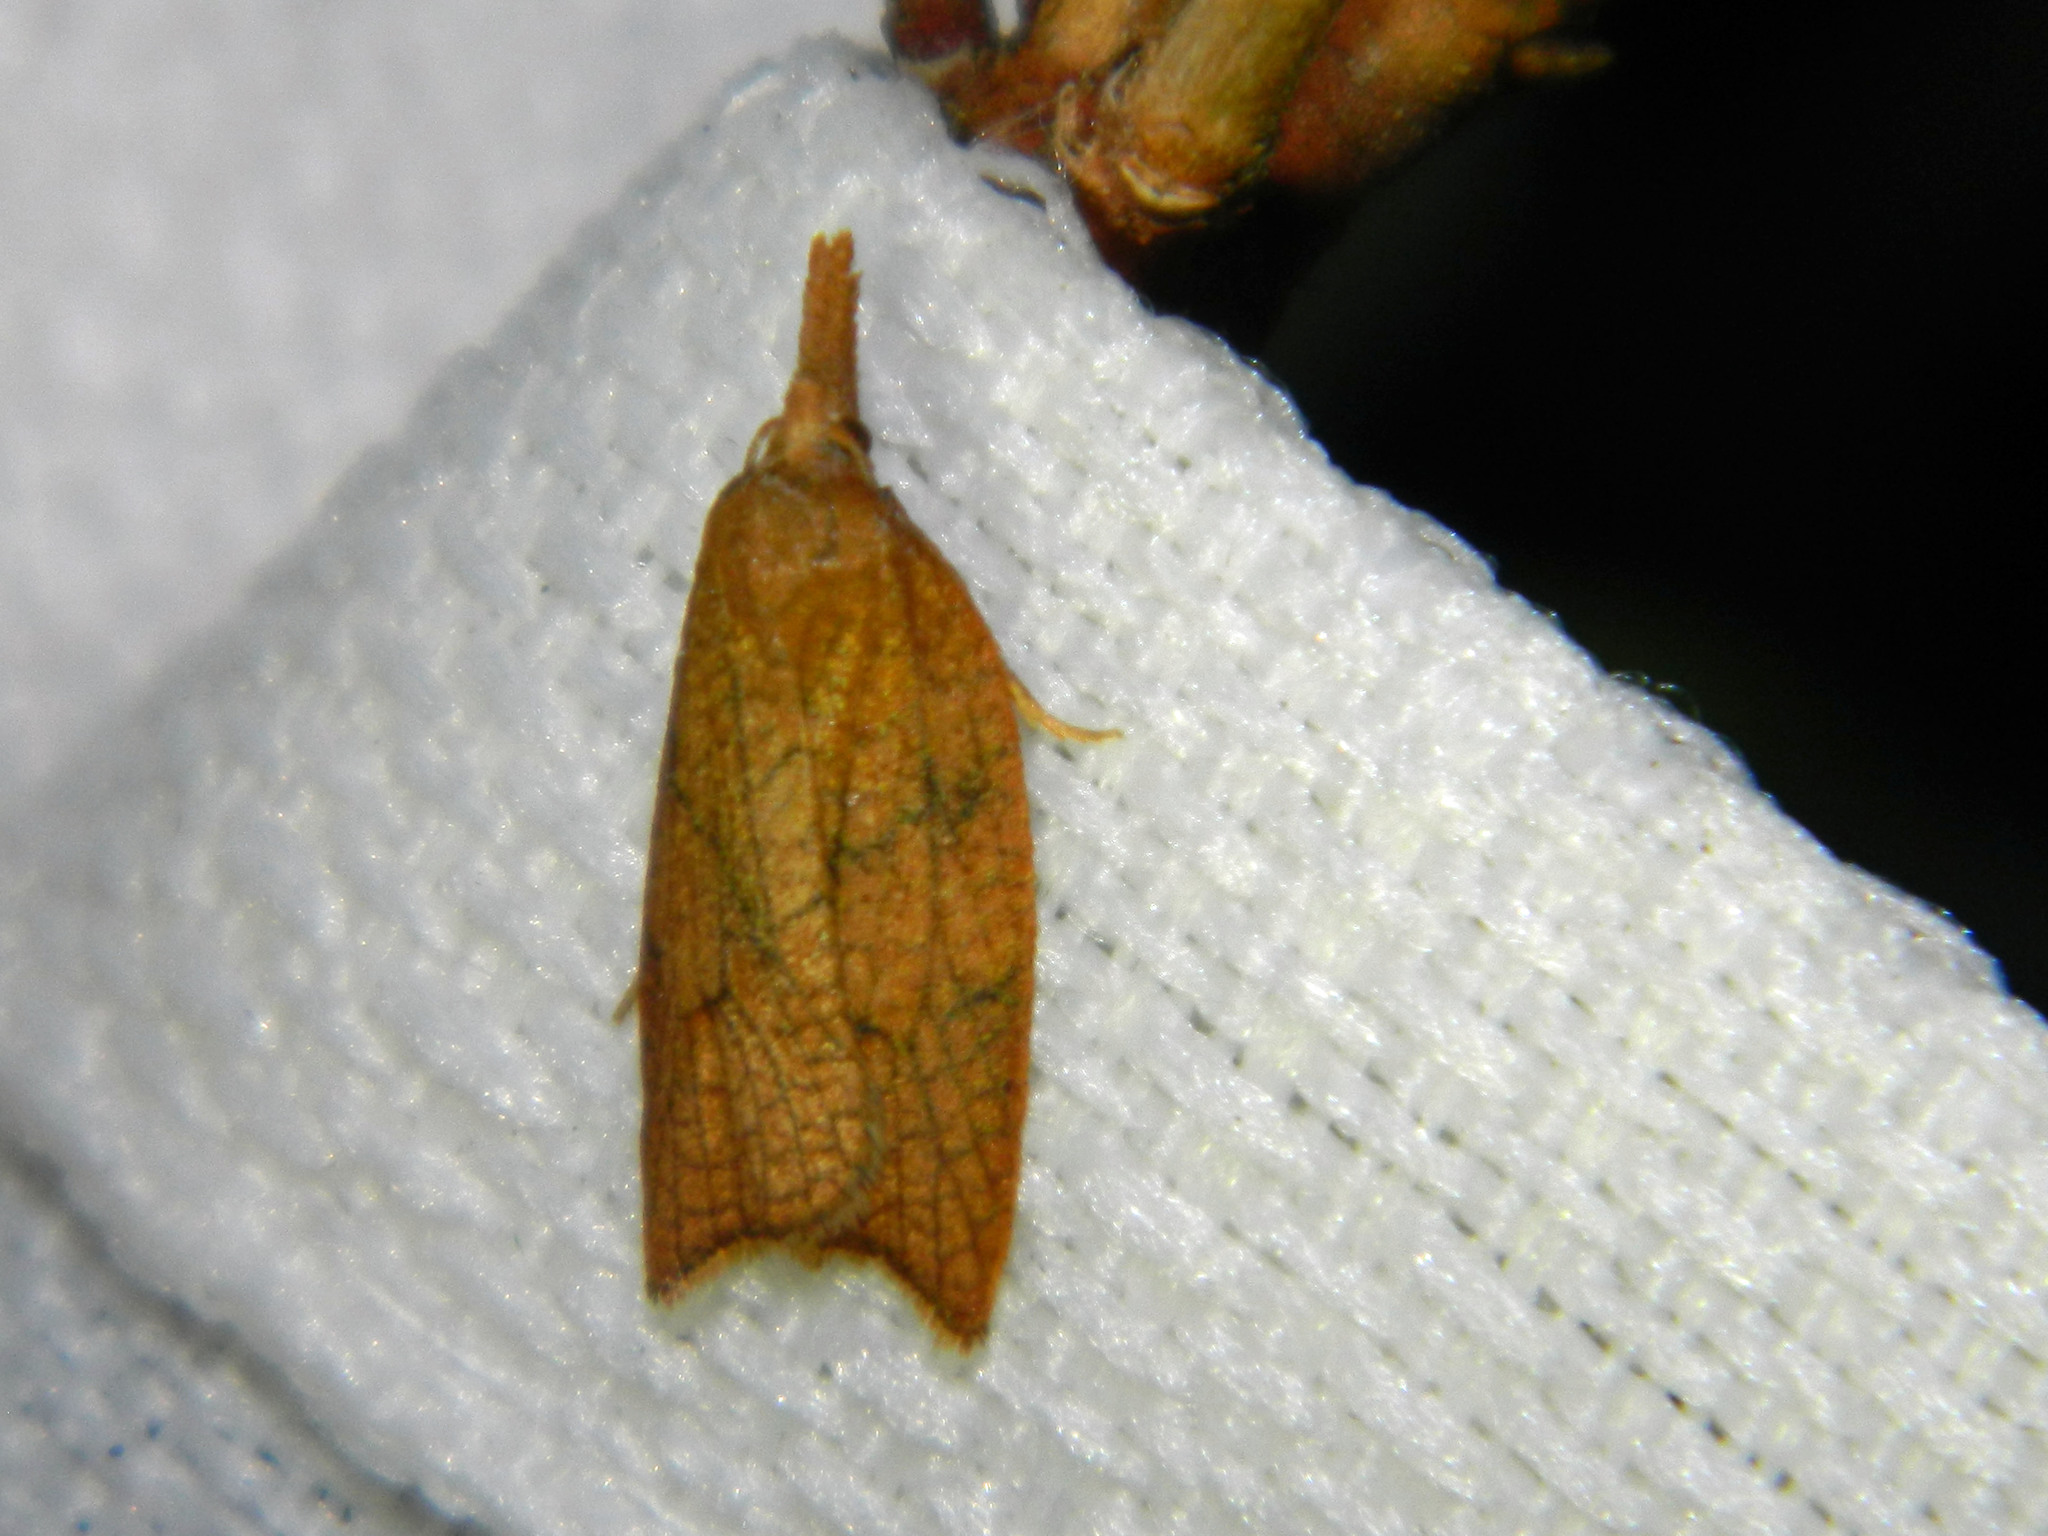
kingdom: Animalia
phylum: Arthropoda
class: Insecta
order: Lepidoptera
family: Tortricidae
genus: Sparganothis
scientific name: Sparganothis xanthoides
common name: Mosaic sparganothis moth
